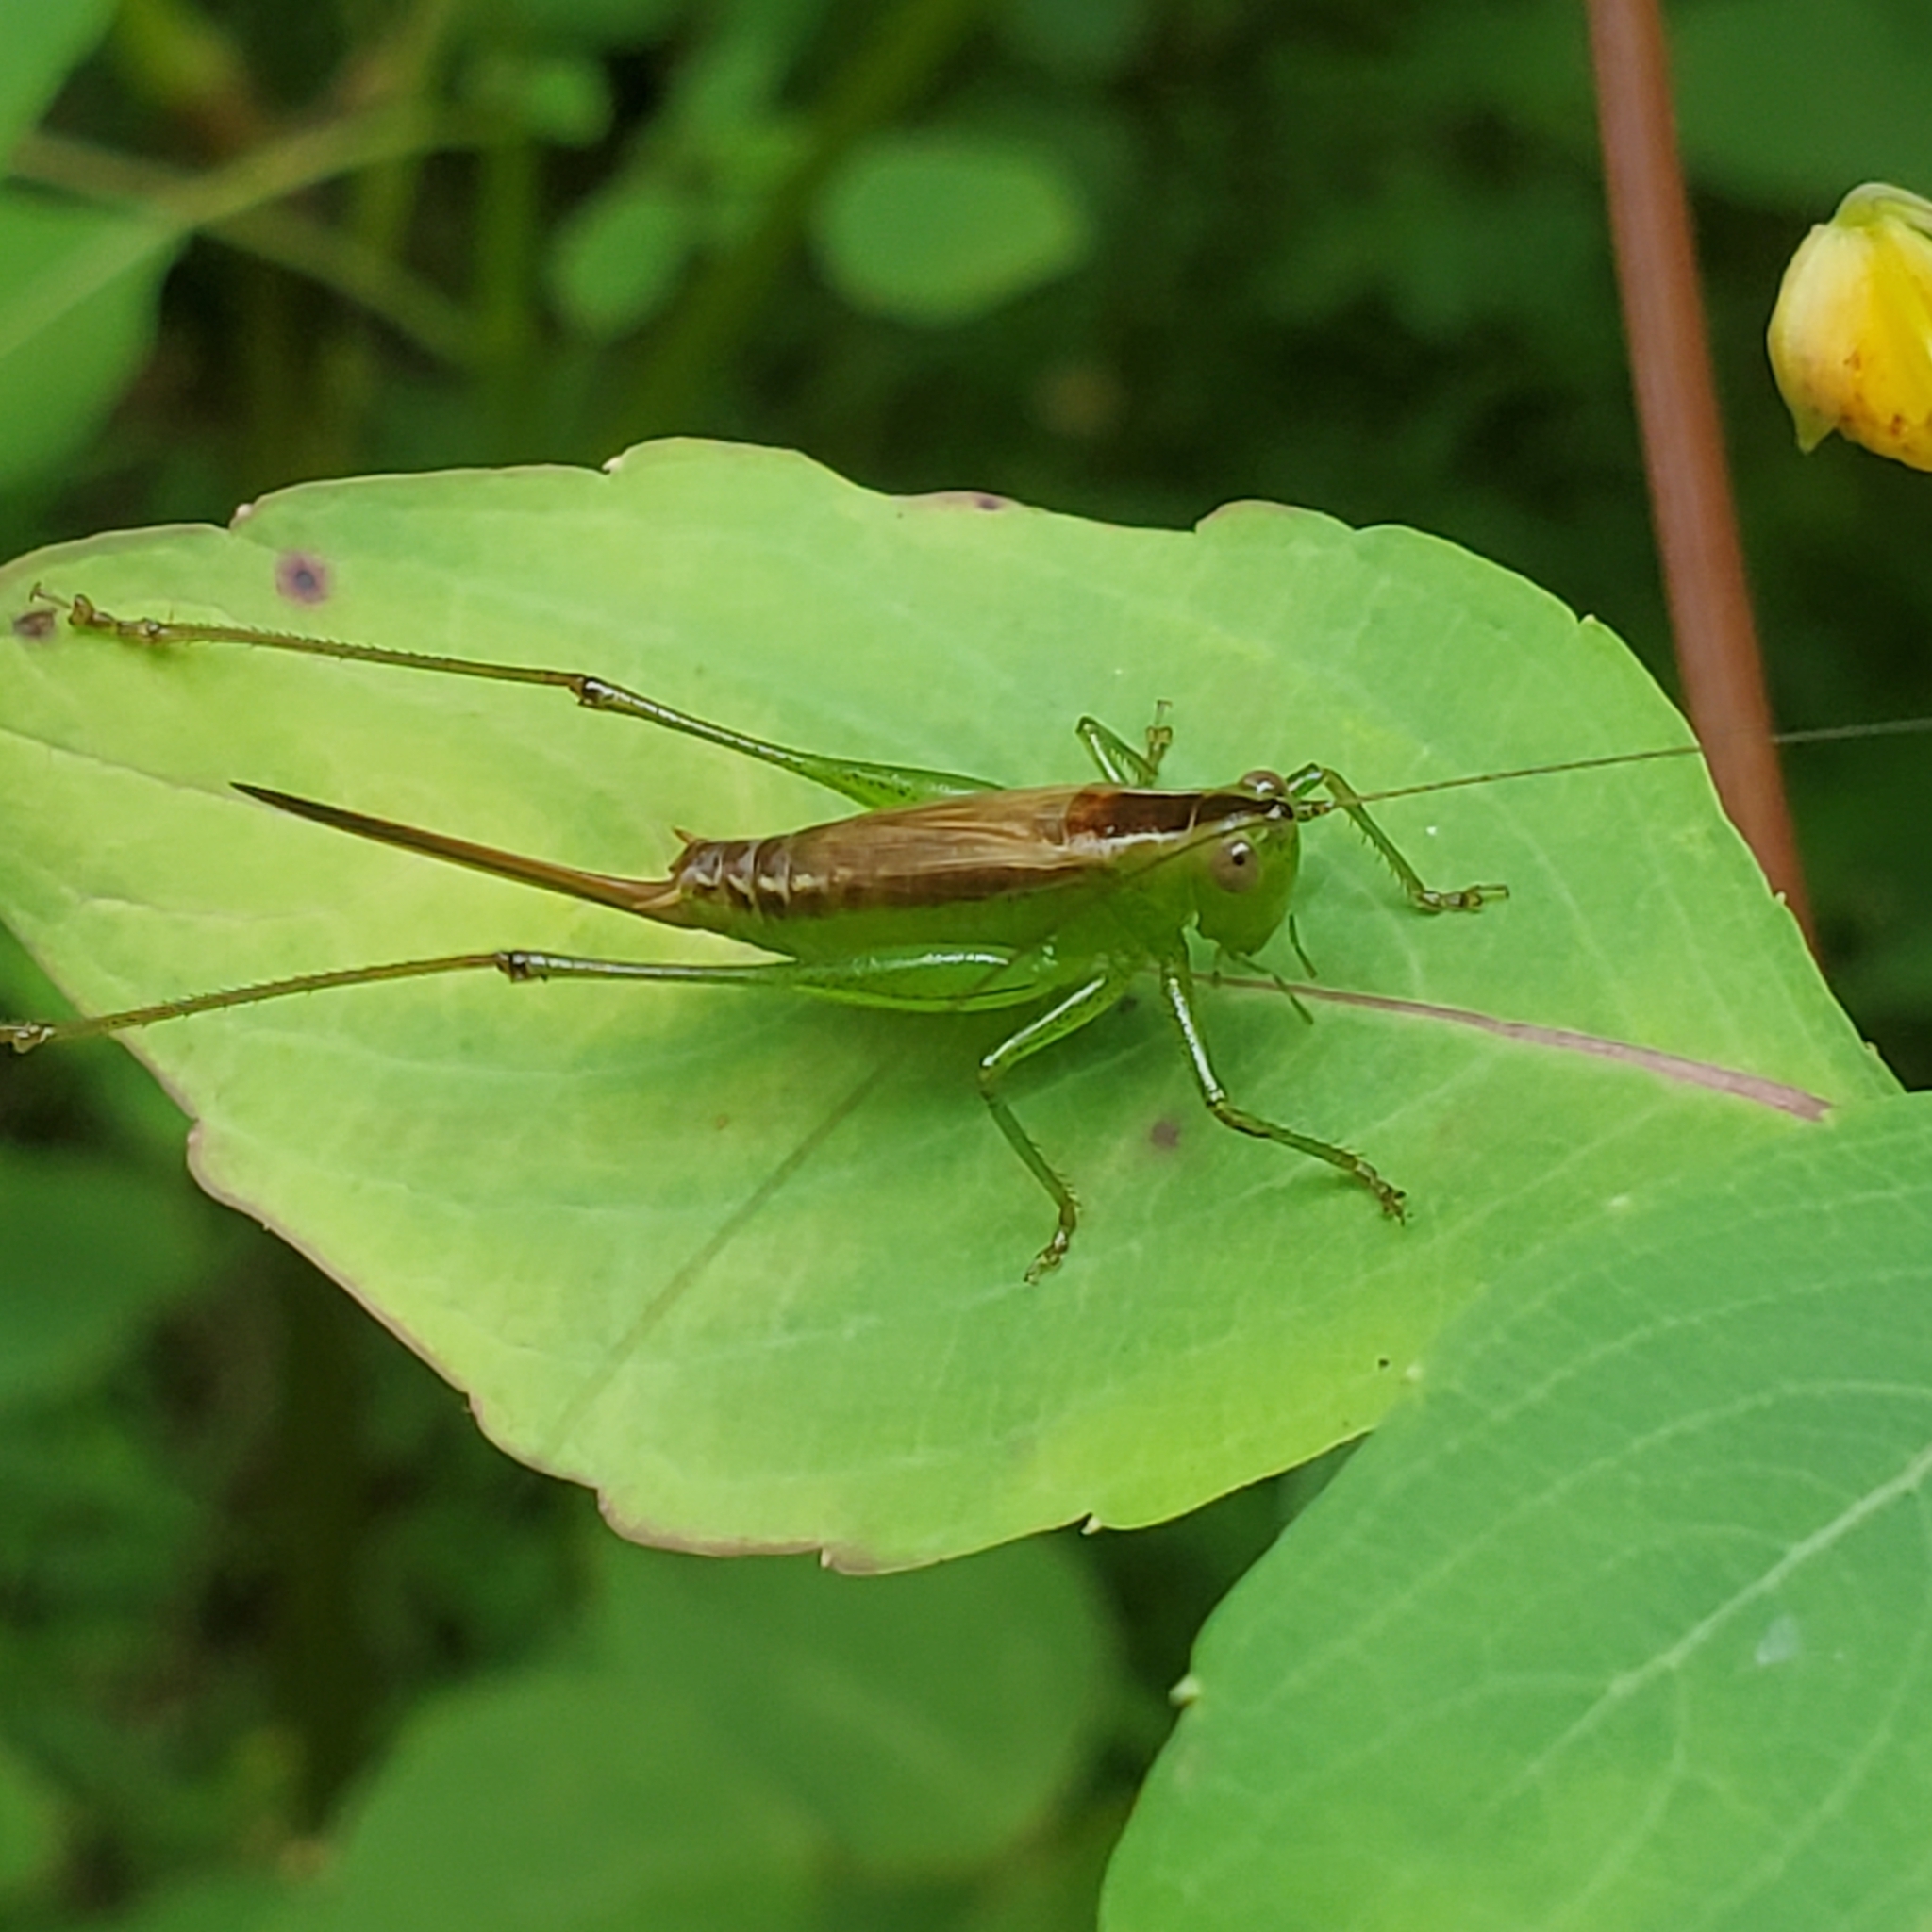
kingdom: Animalia
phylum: Arthropoda
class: Insecta
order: Orthoptera
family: Tettigoniidae
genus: Conocephalus
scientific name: Conocephalus brevipennis
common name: Short-winged meadow katydid
